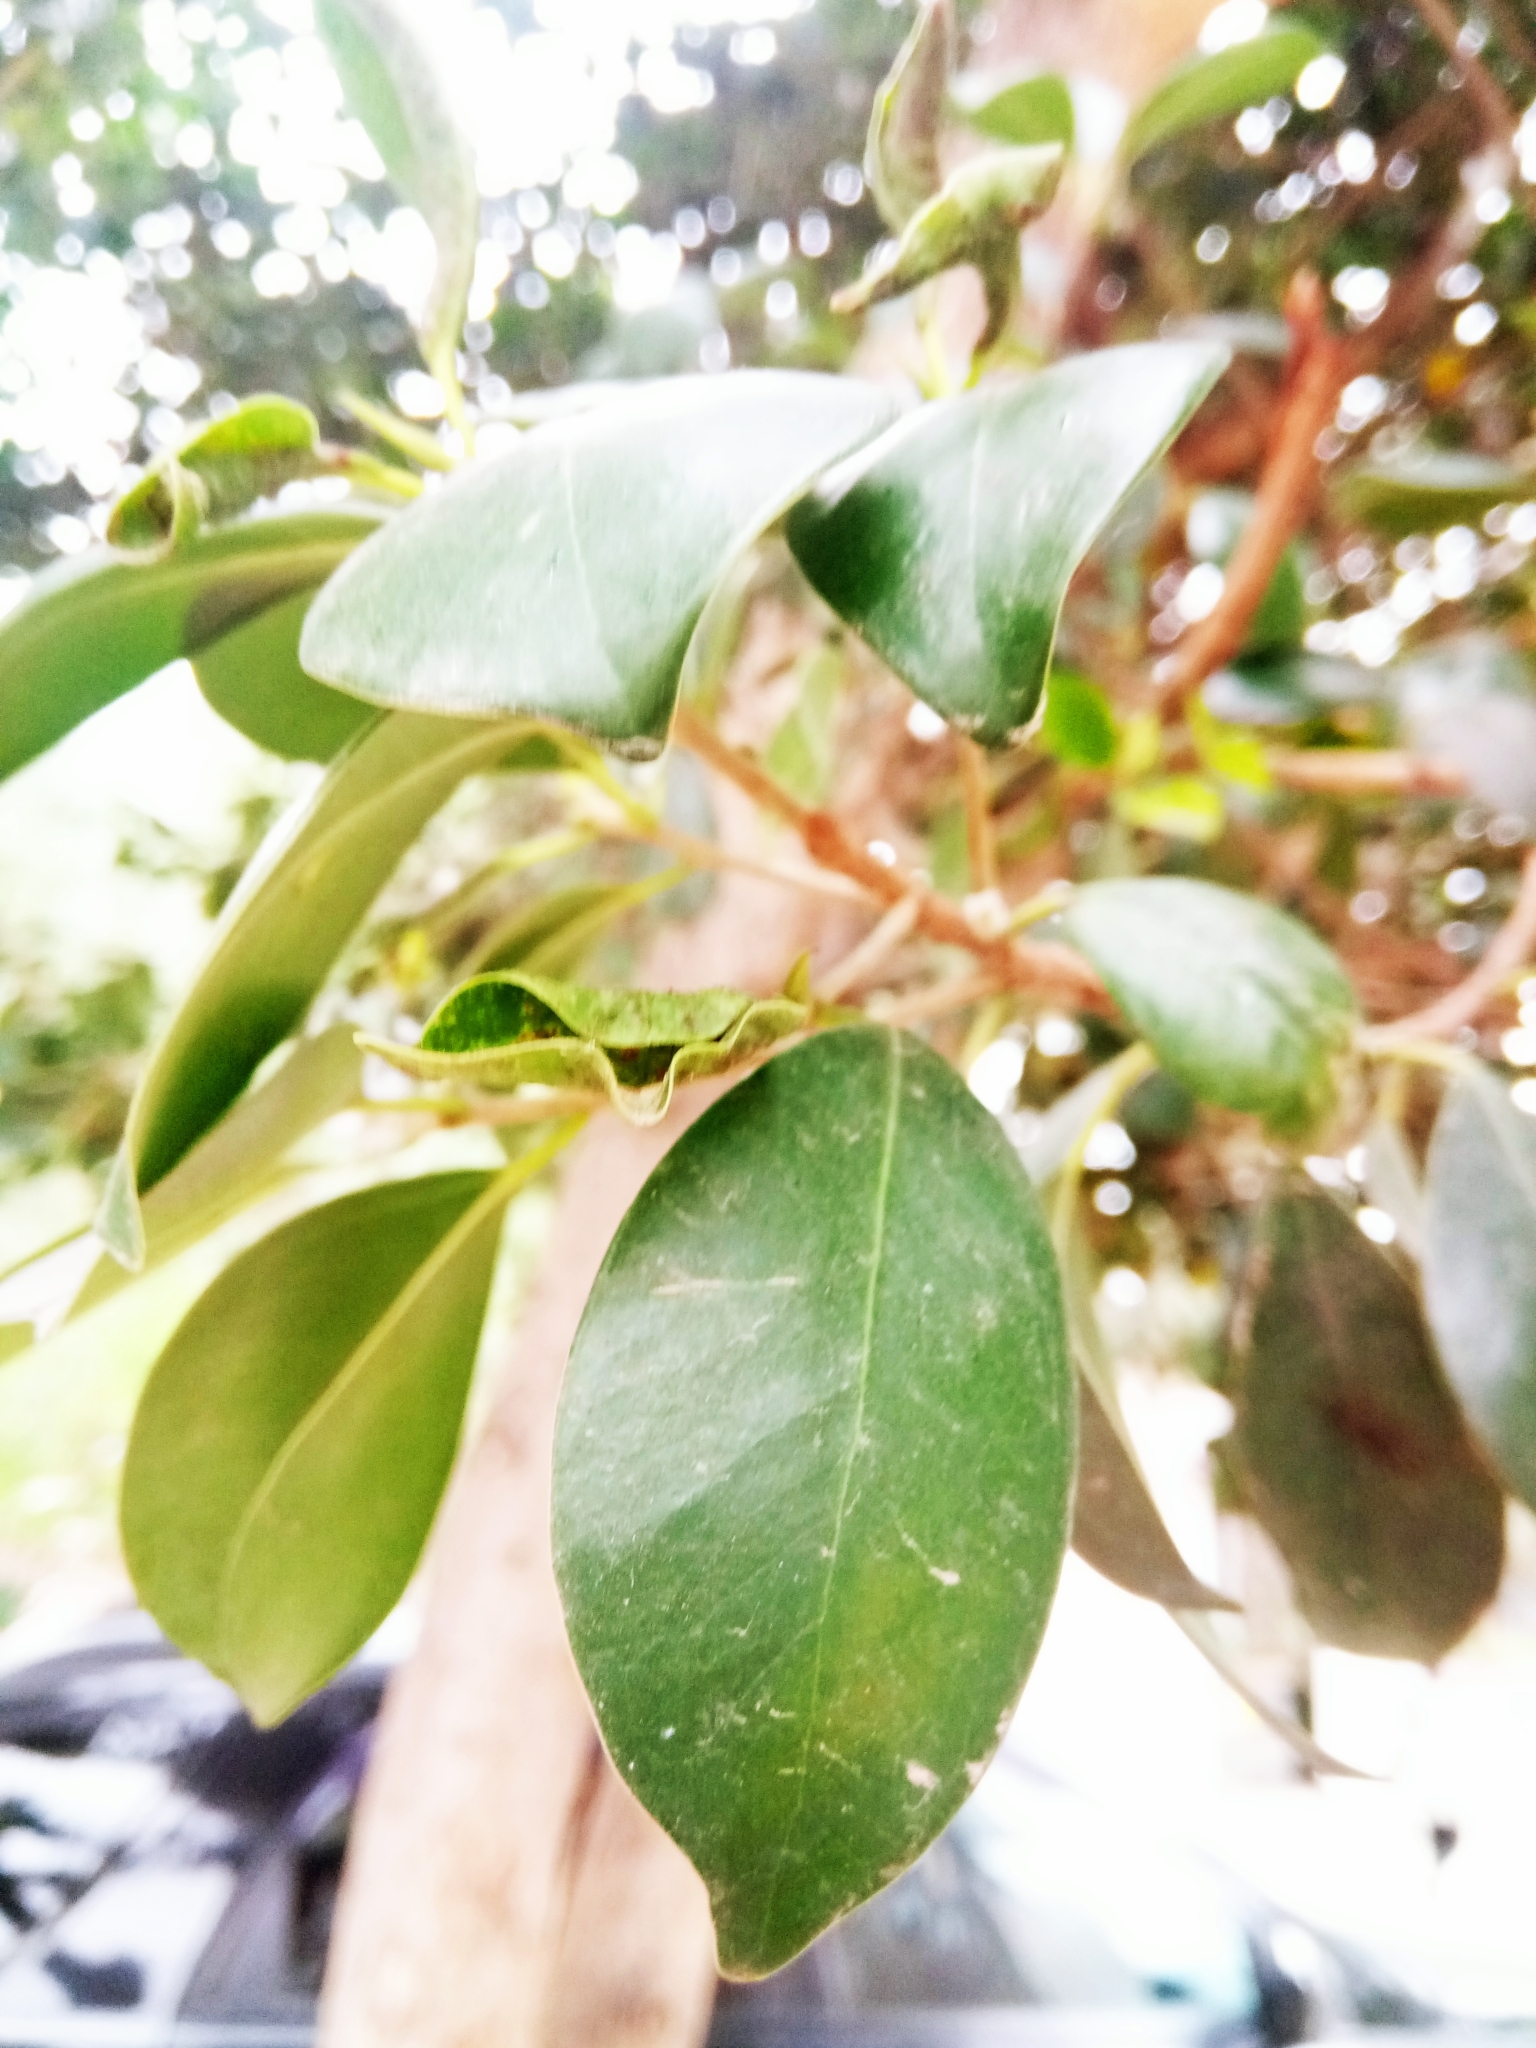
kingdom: Plantae
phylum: Tracheophyta
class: Magnoliopsida
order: Rosales
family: Moraceae
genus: Ficus
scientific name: Ficus microcarpa
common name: Chinese banyan
